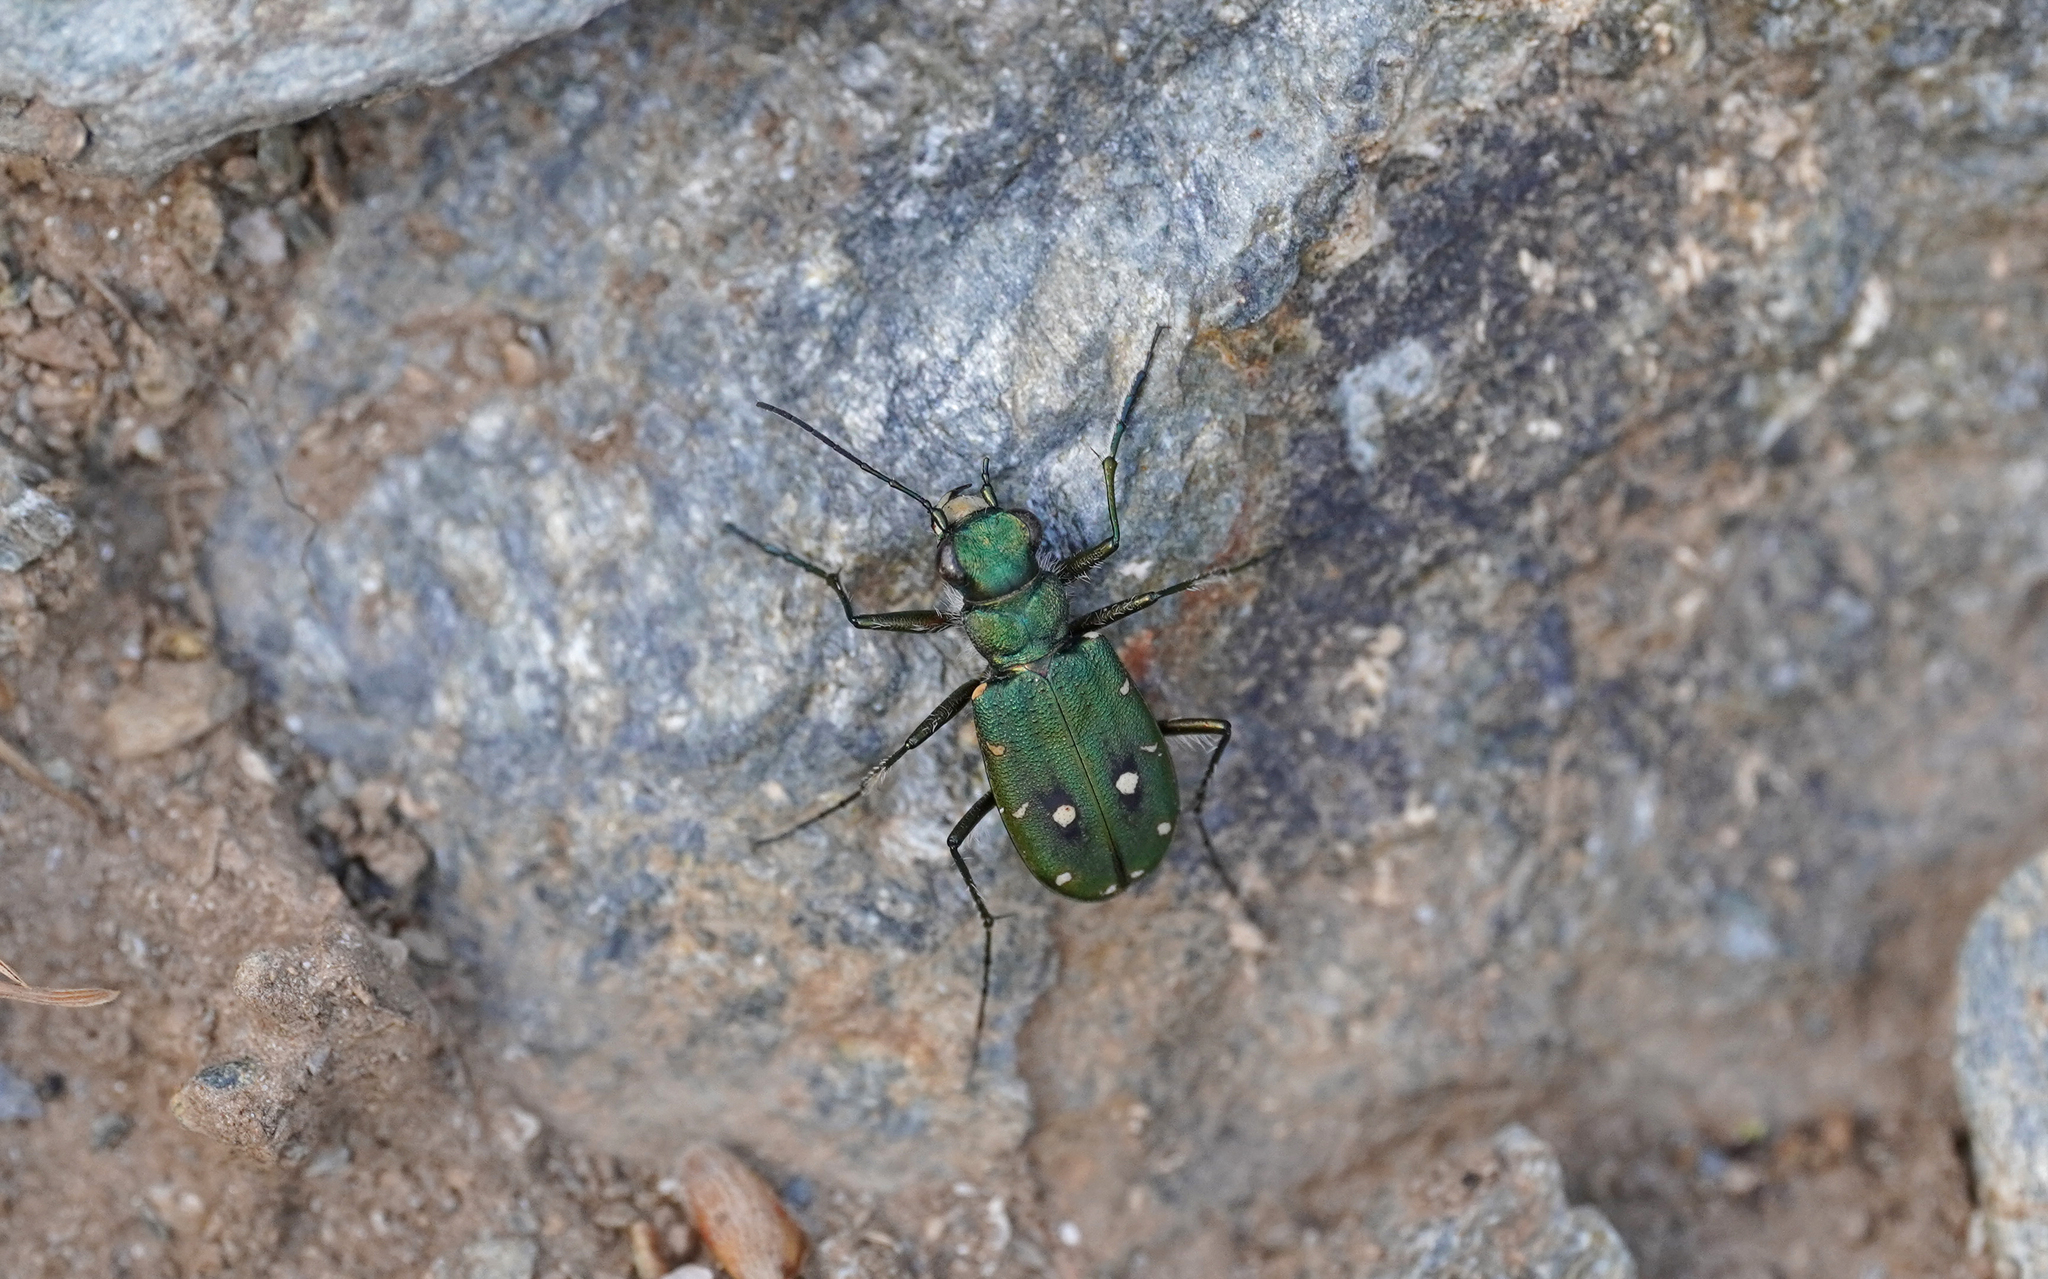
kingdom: Animalia
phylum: Arthropoda
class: Insecta
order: Coleoptera
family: Carabidae
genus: Cicindela
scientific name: Cicindela campestris
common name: Common tiger beetle
